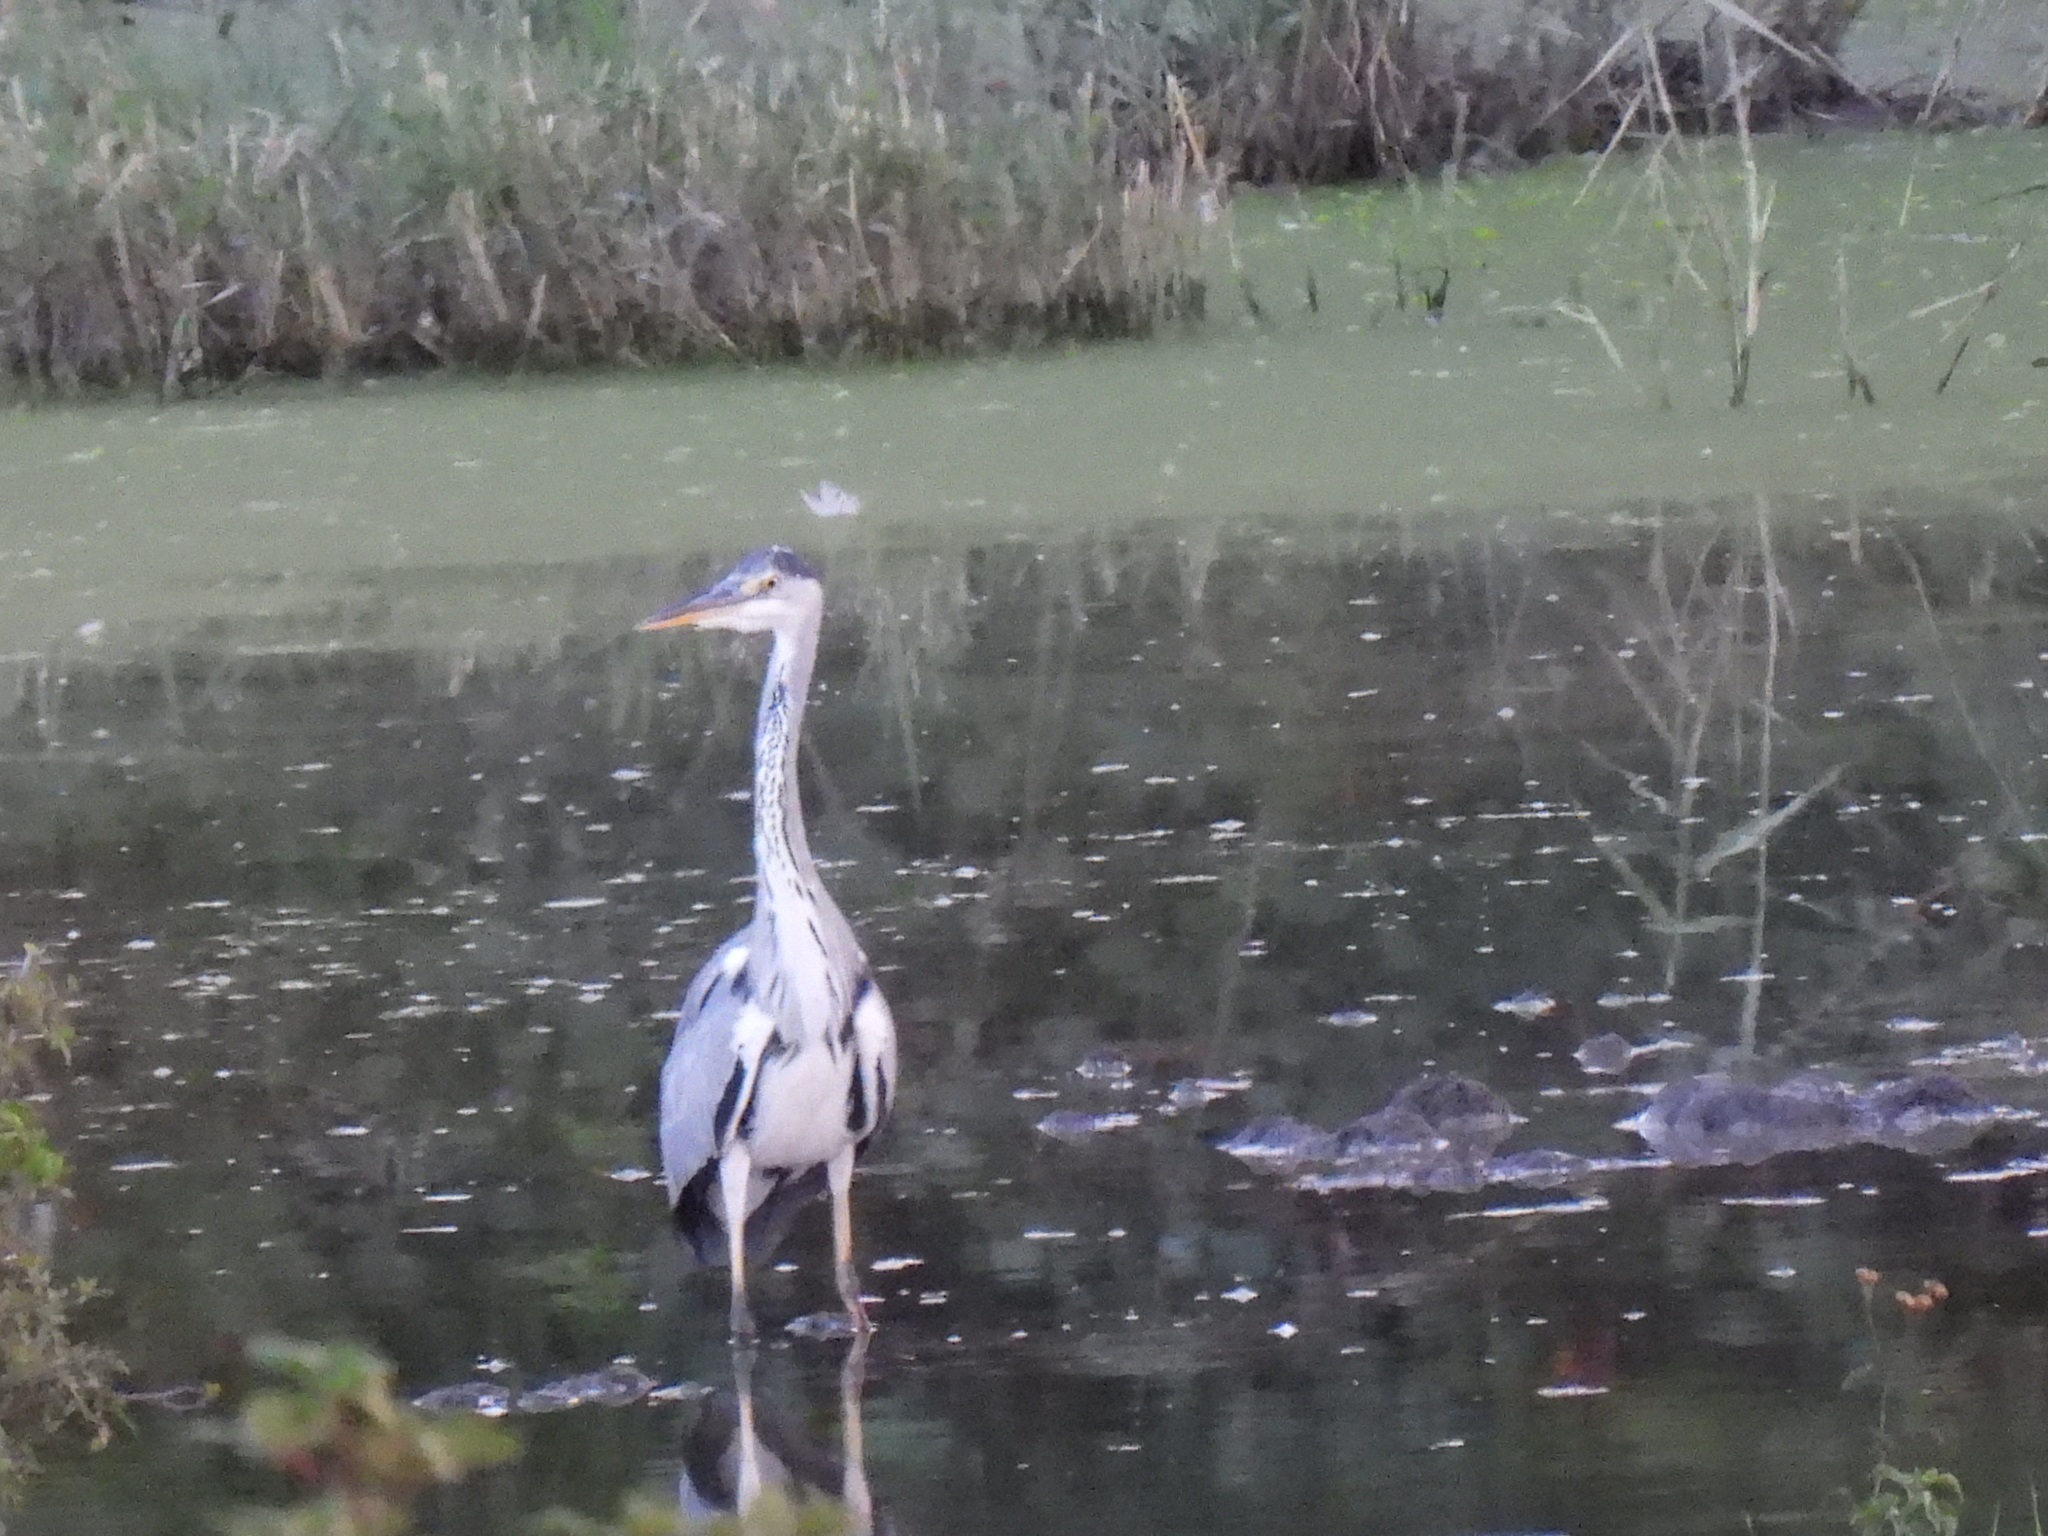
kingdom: Animalia
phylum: Chordata
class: Aves
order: Pelecaniformes
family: Ardeidae
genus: Ardea
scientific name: Ardea cinerea
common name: Grey heron
